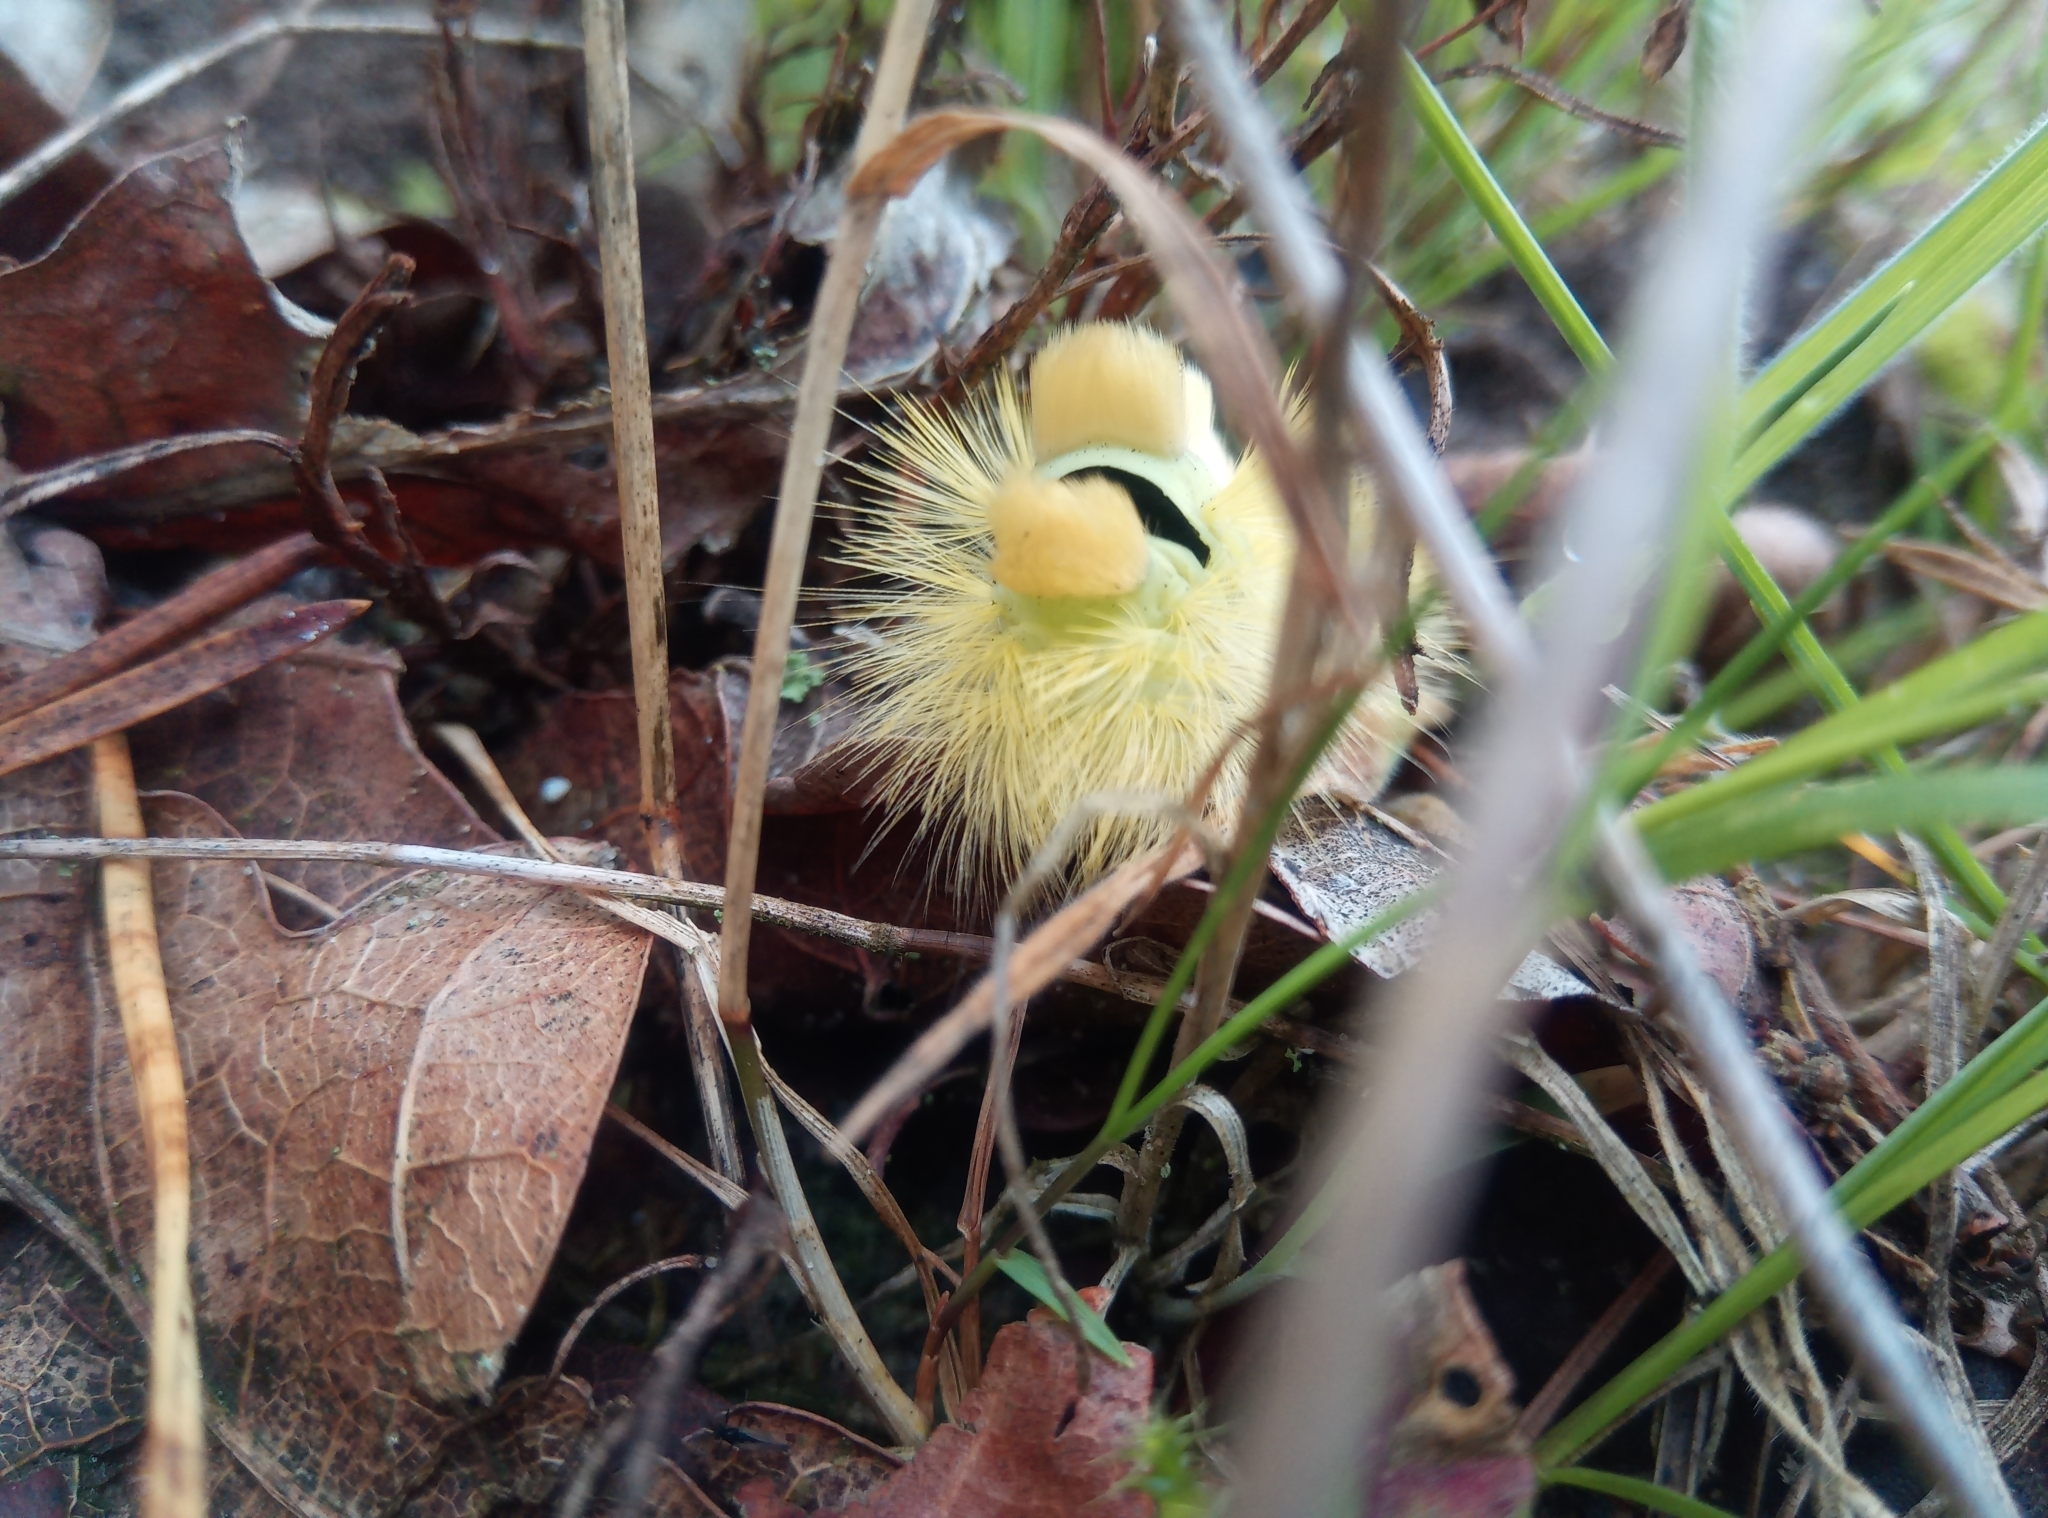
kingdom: Animalia
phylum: Arthropoda
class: Insecta
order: Lepidoptera
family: Erebidae
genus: Calliteara
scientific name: Calliteara pudibunda
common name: Pale tussock
